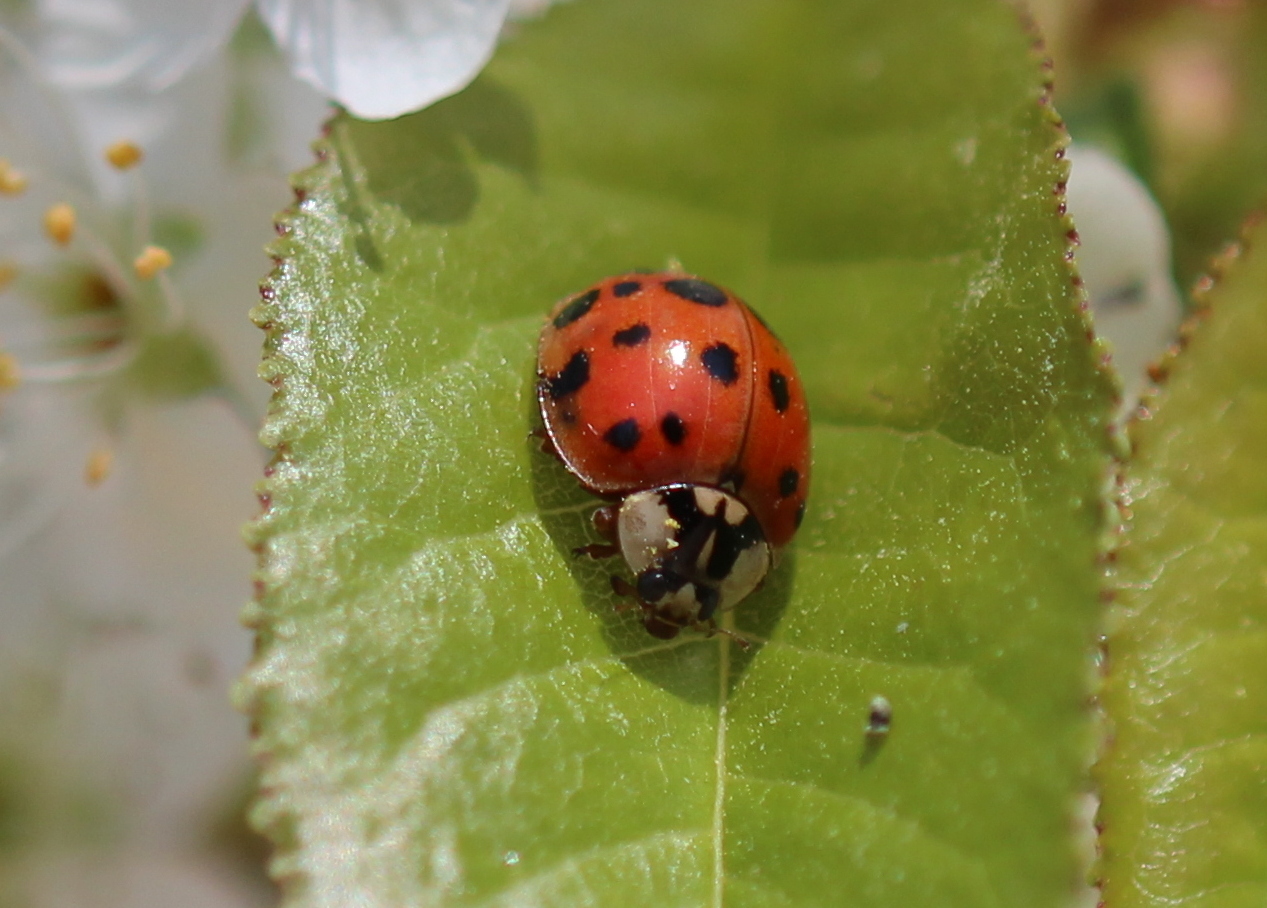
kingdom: Animalia
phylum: Arthropoda
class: Insecta
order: Coleoptera
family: Coccinellidae
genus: Harmonia
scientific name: Harmonia axyridis
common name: Harlequin ladybird
